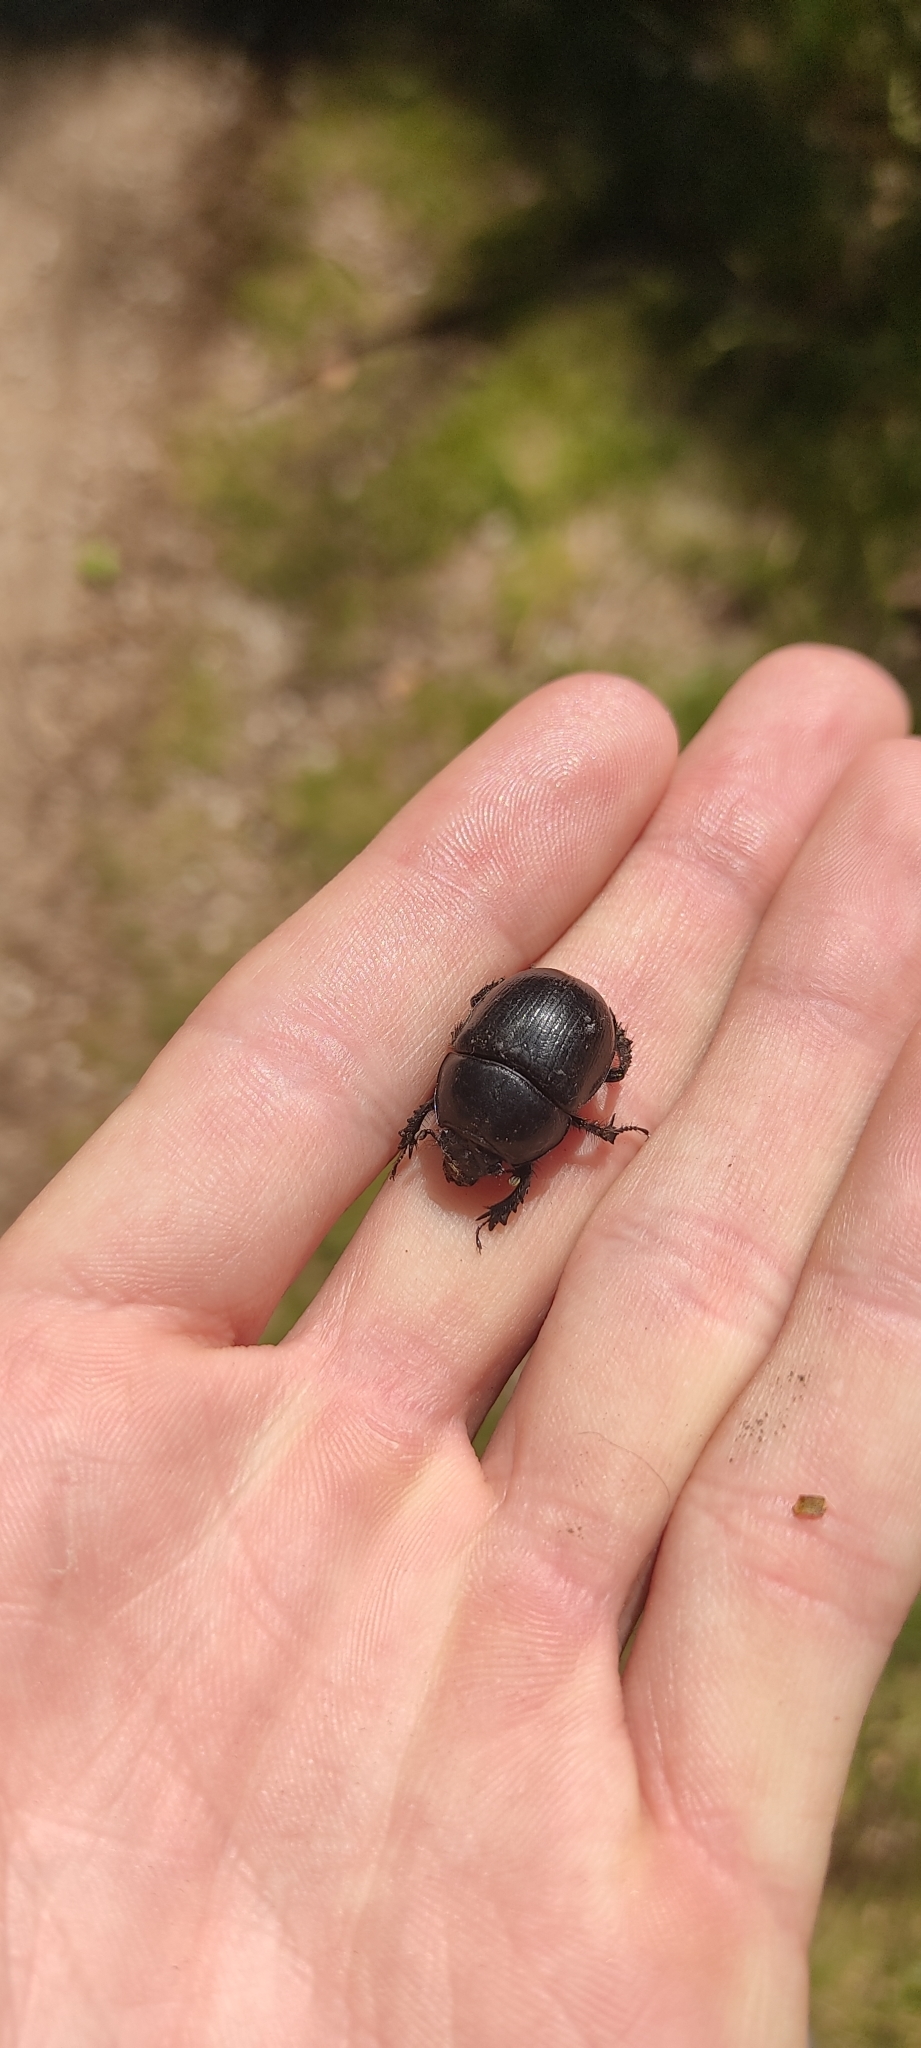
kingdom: Animalia
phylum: Arthropoda
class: Insecta
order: Coleoptera
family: Geotrupidae
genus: Anoplotrupes
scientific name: Anoplotrupes stercorosus
